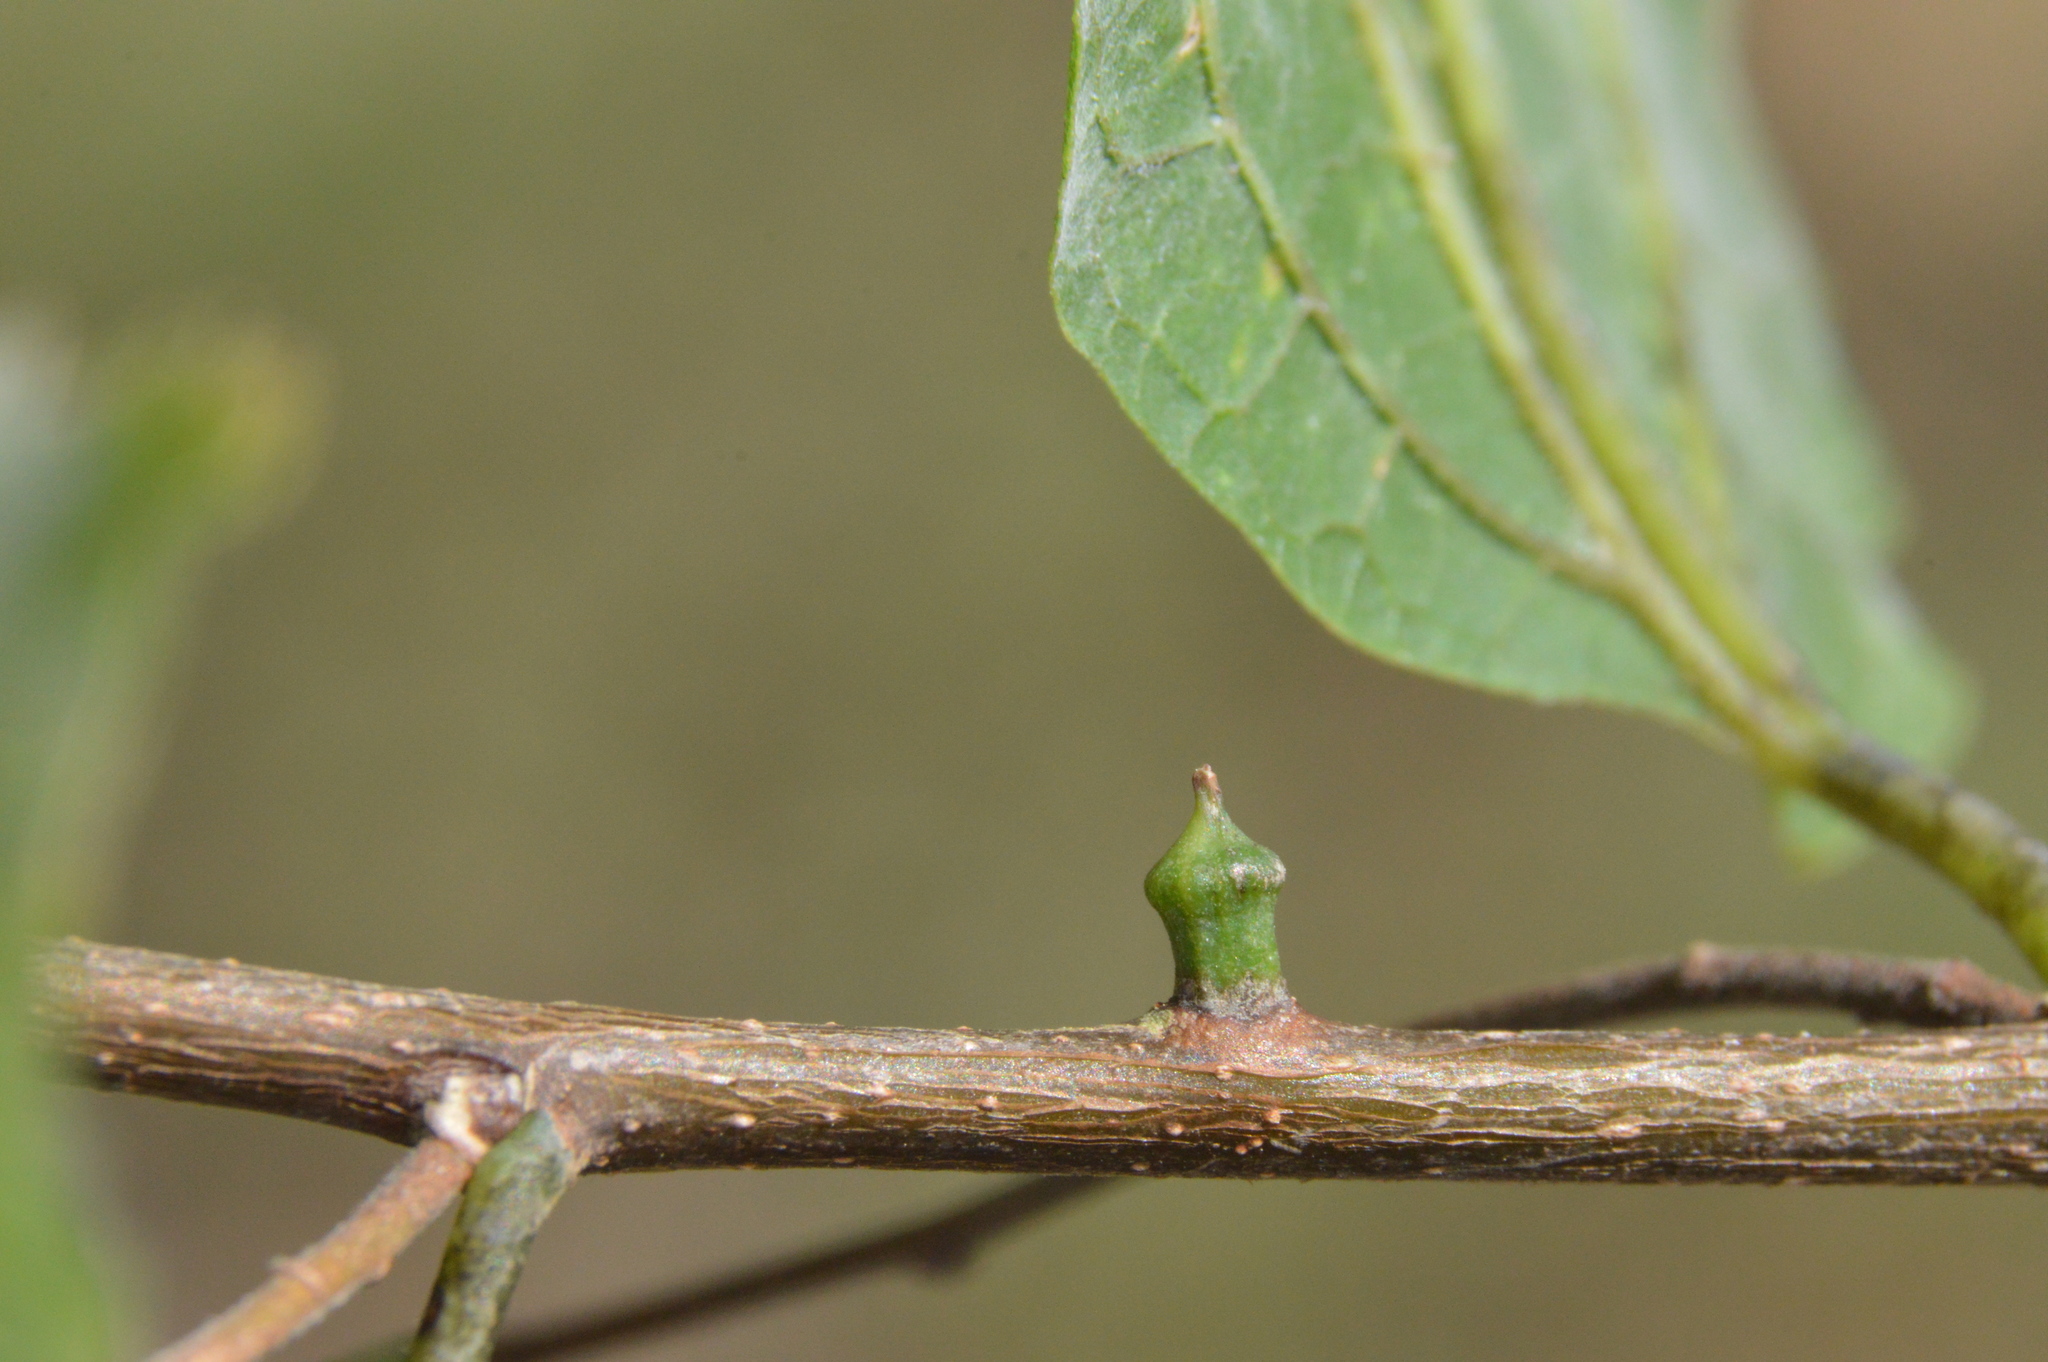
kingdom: Animalia
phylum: Arthropoda
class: Insecta
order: Diptera
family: Cecidomyiidae
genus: Celticecis
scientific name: Celticecis ramicola
